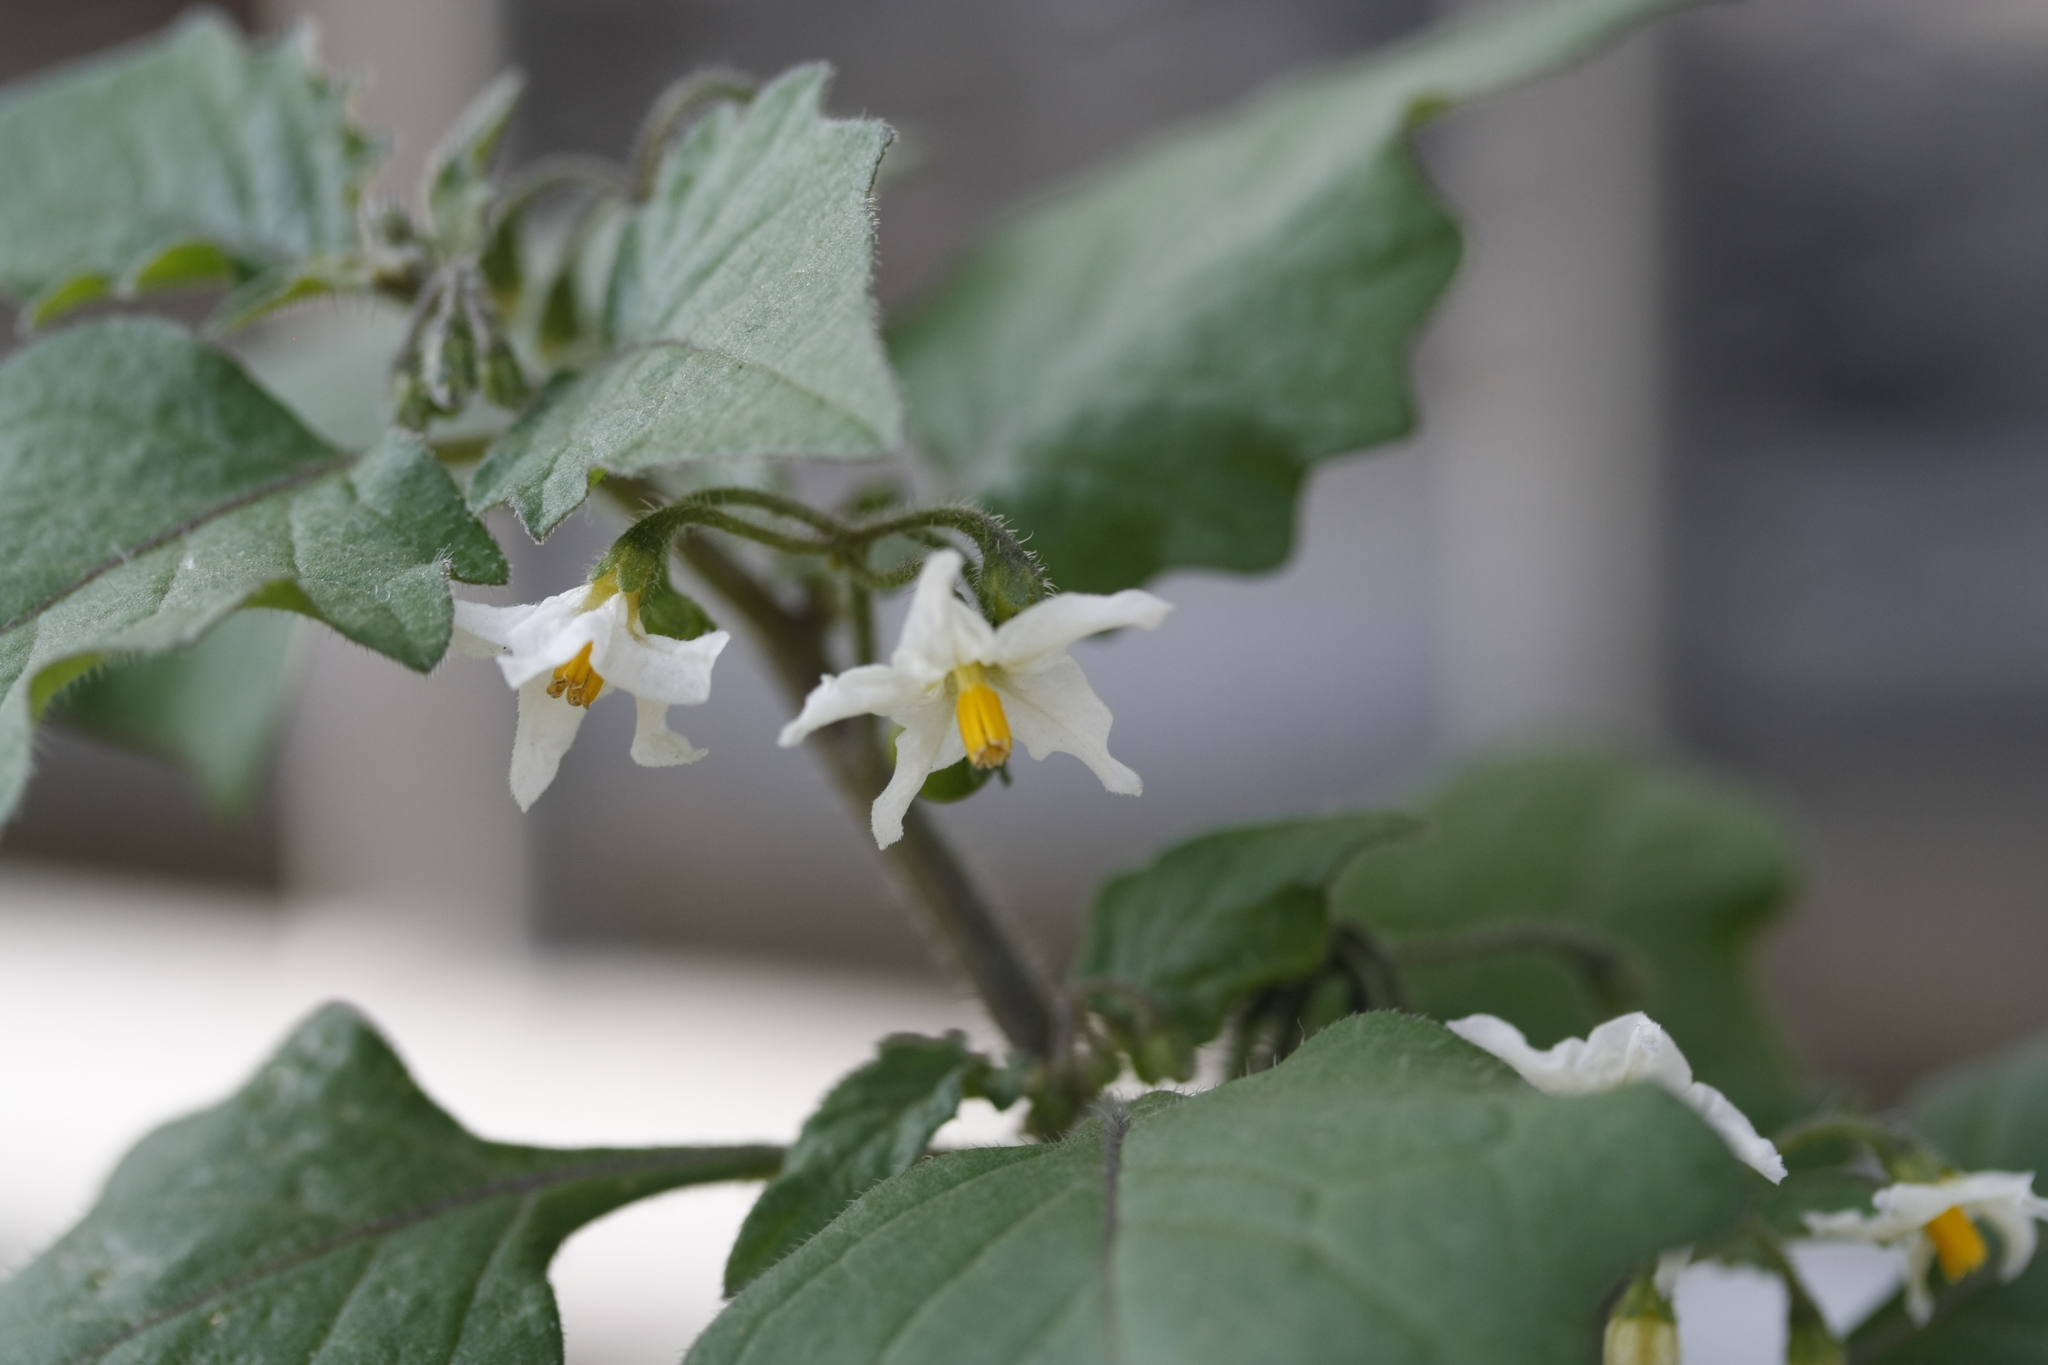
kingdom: Plantae
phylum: Tracheophyta
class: Magnoliopsida
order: Solanales
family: Solanaceae
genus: Solanum
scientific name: Solanum nigrum
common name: Black nightshade
